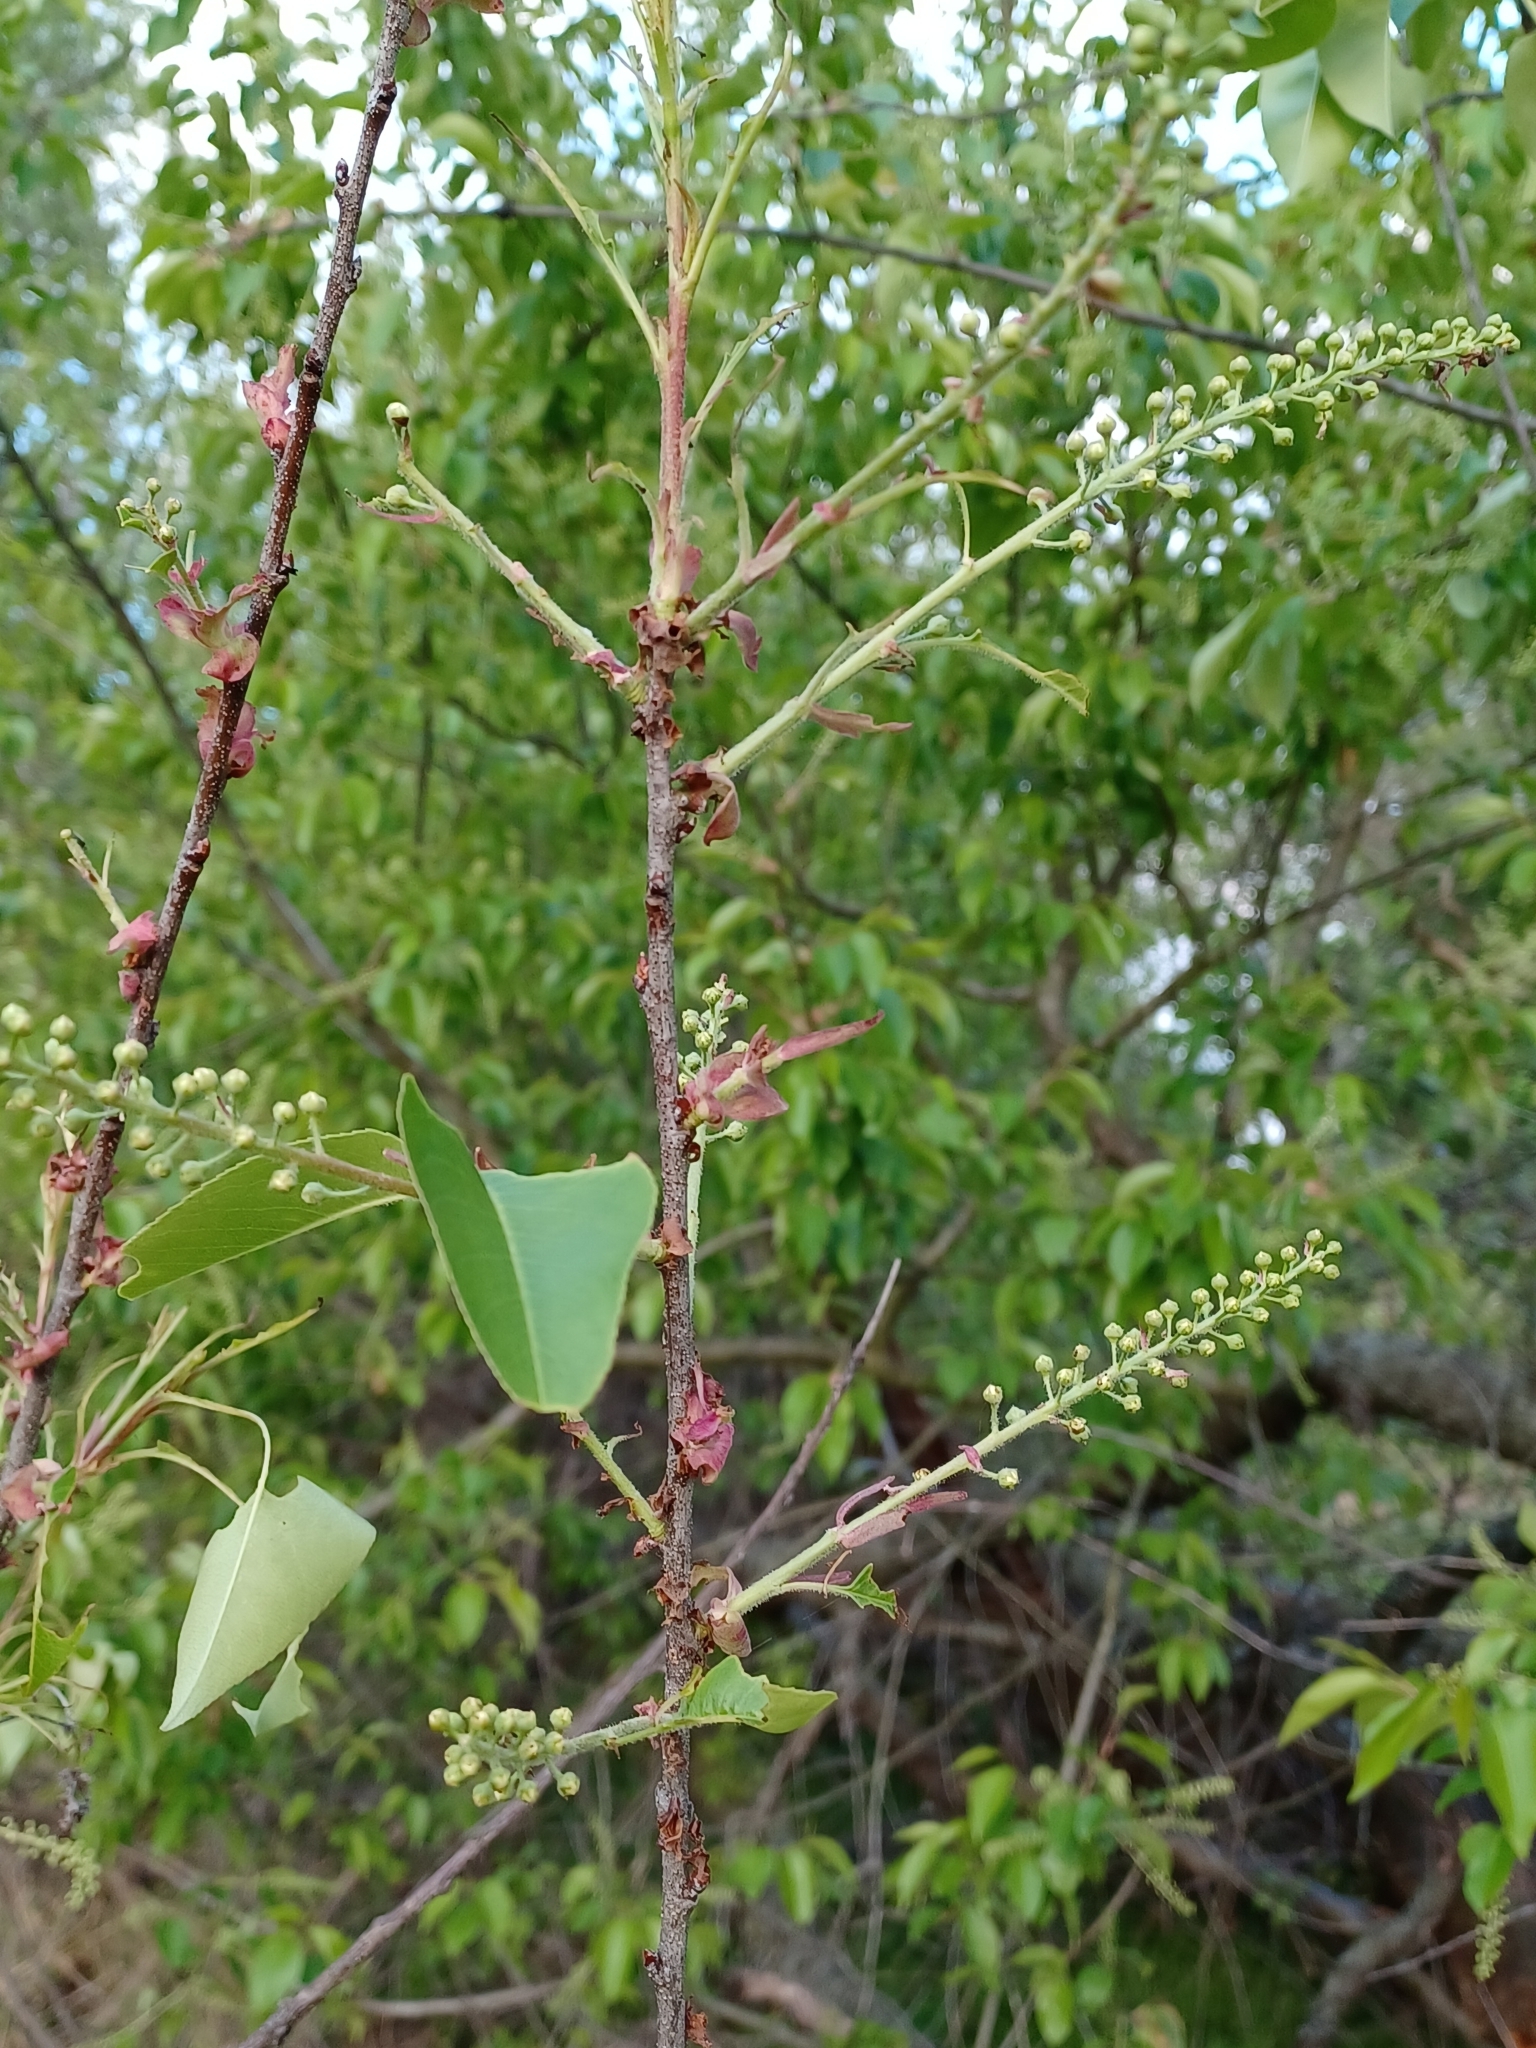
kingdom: Plantae
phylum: Tracheophyta
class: Magnoliopsida
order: Rosales
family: Rosaceae
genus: Prunus
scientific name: Prunus serotina
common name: Black cherry
